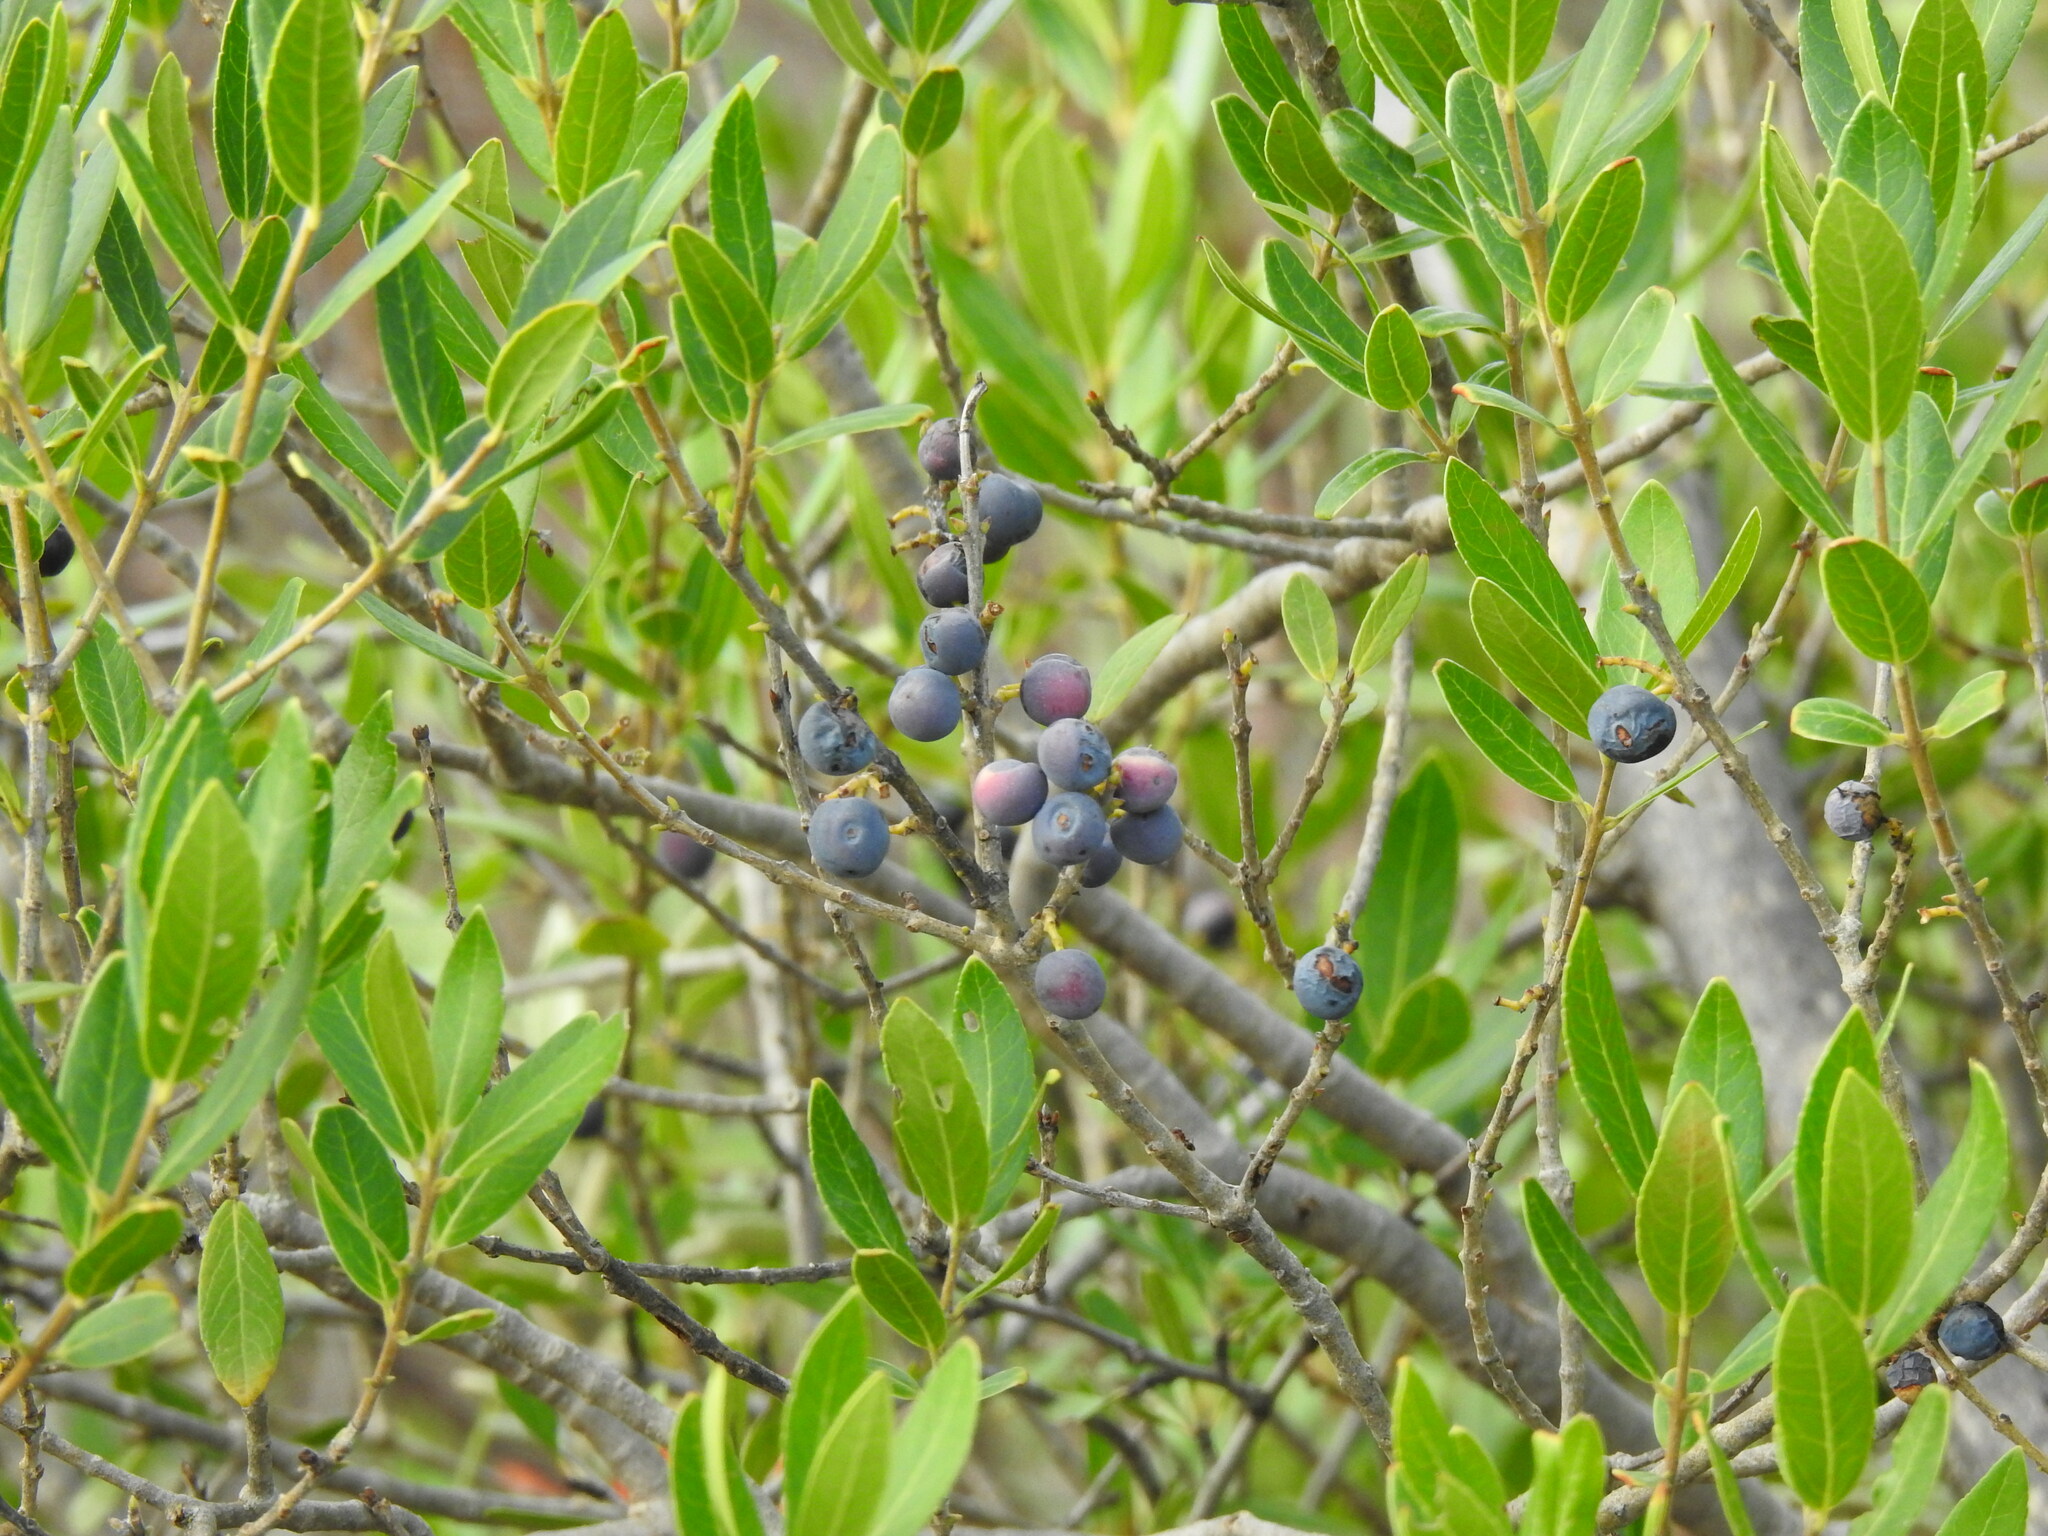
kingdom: Plantae
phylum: Tracheophyta
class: Magnoliopsida
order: Lamiales
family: Oleaceae
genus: Phillyrea
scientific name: Phillyrea latifolia
